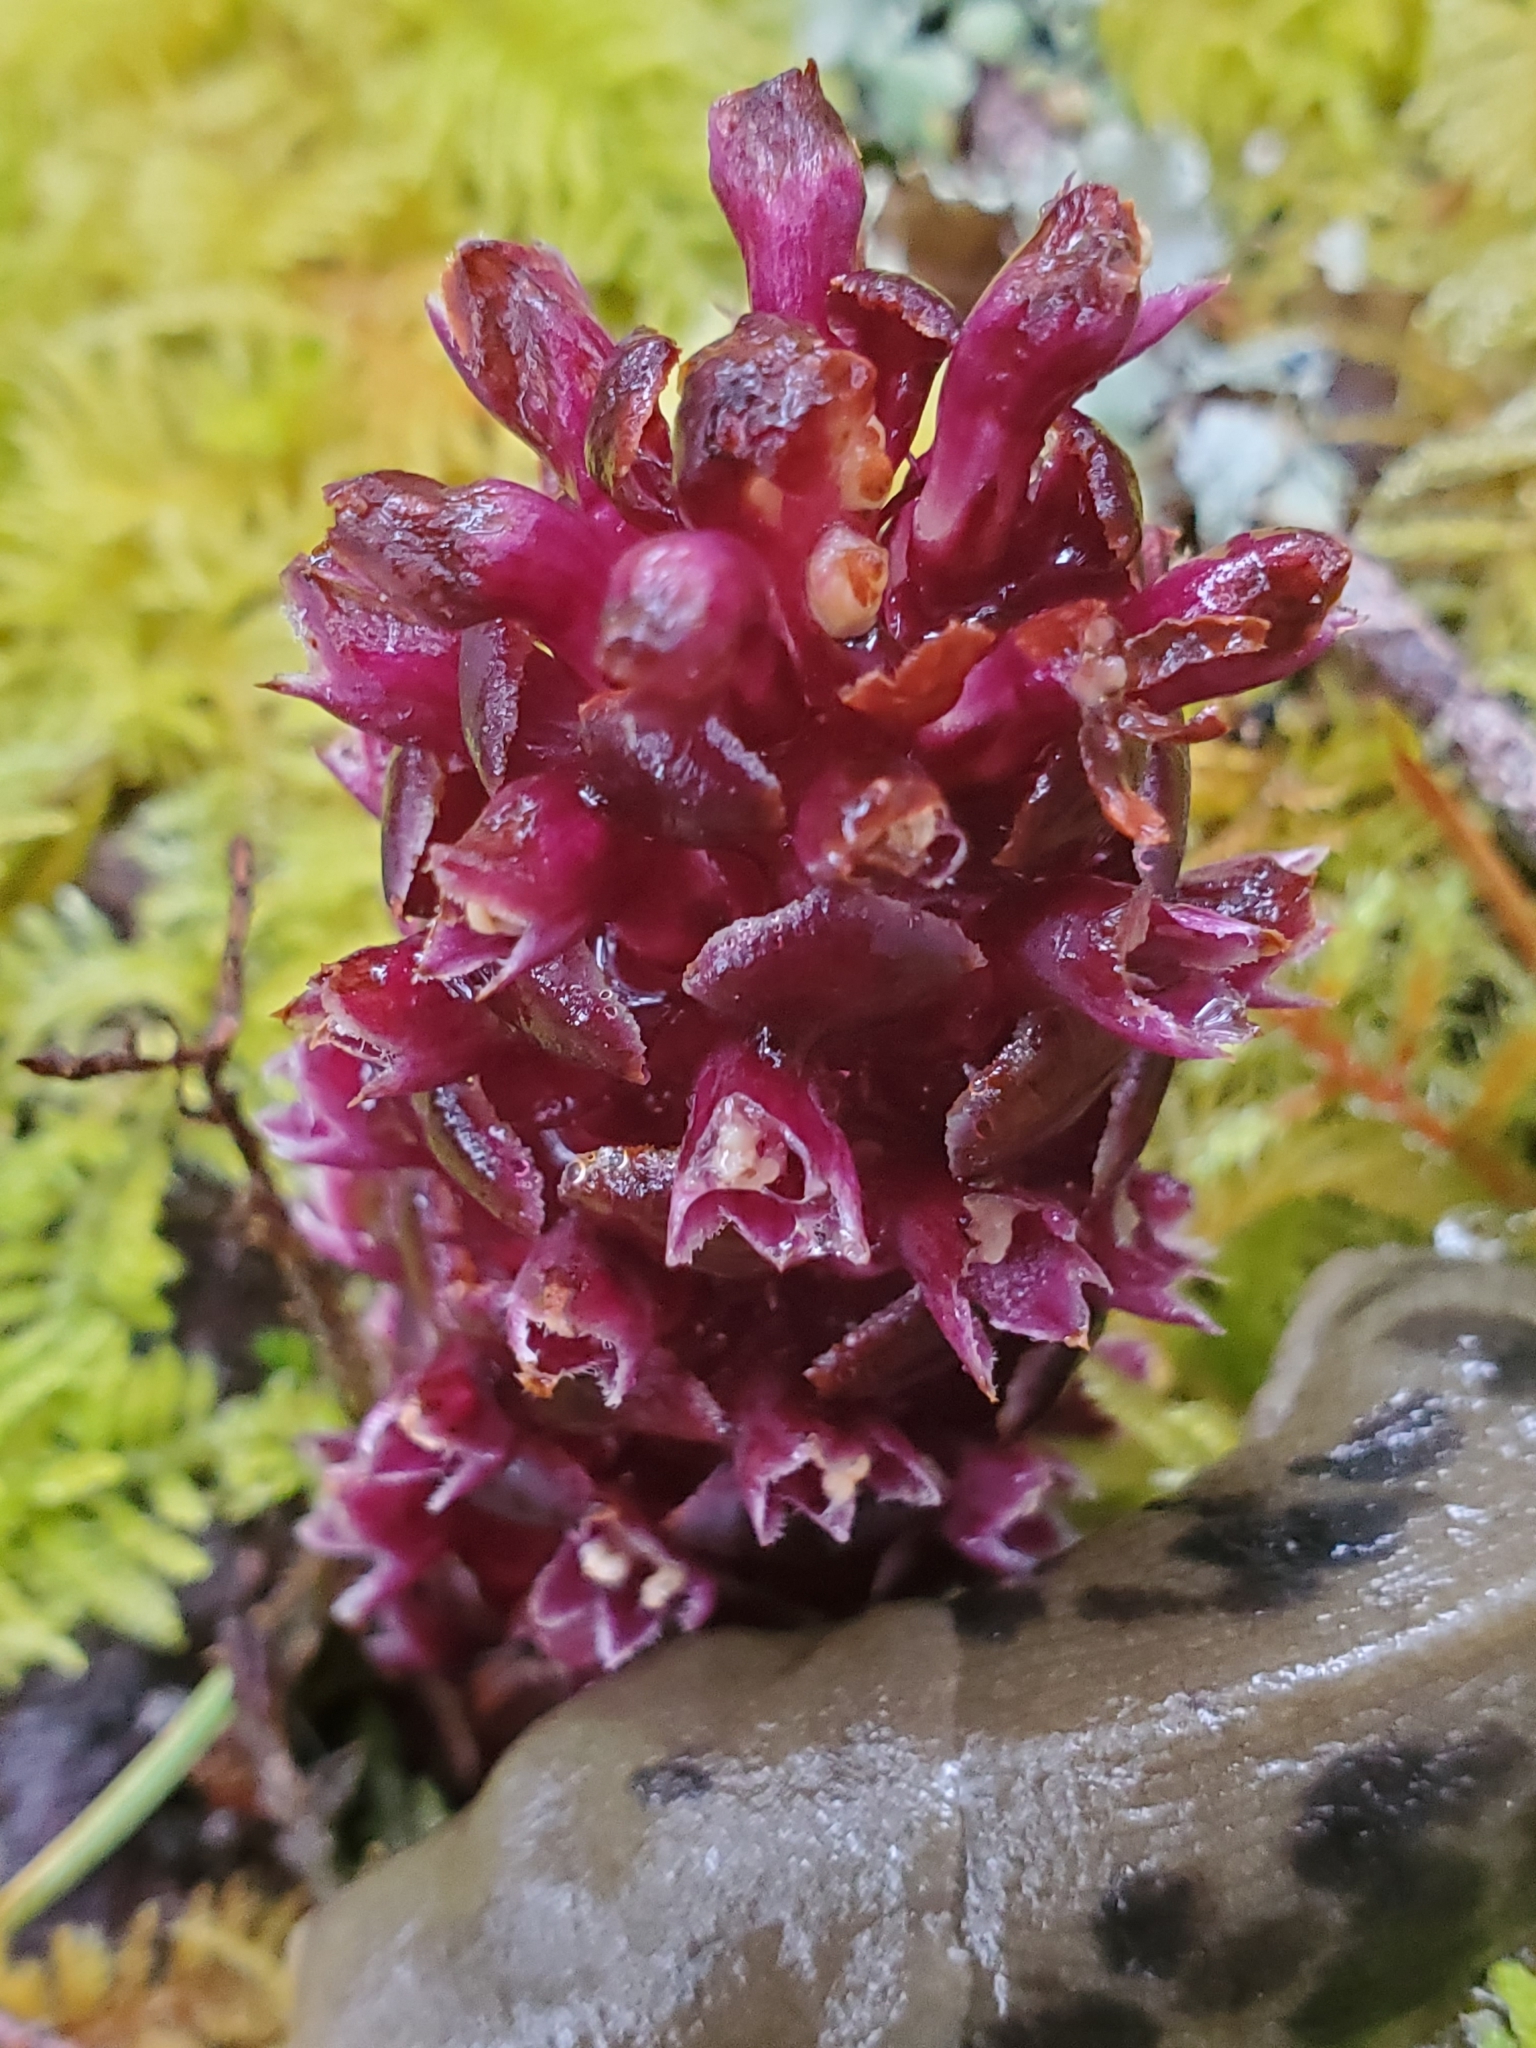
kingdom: Plantae
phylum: Tracheophyta
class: Magnoliopsida
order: Lamiales
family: Orobanchaceae
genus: Kopsiopsis
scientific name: Kopsiopsis hookeri
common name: Hooker's groundcone
